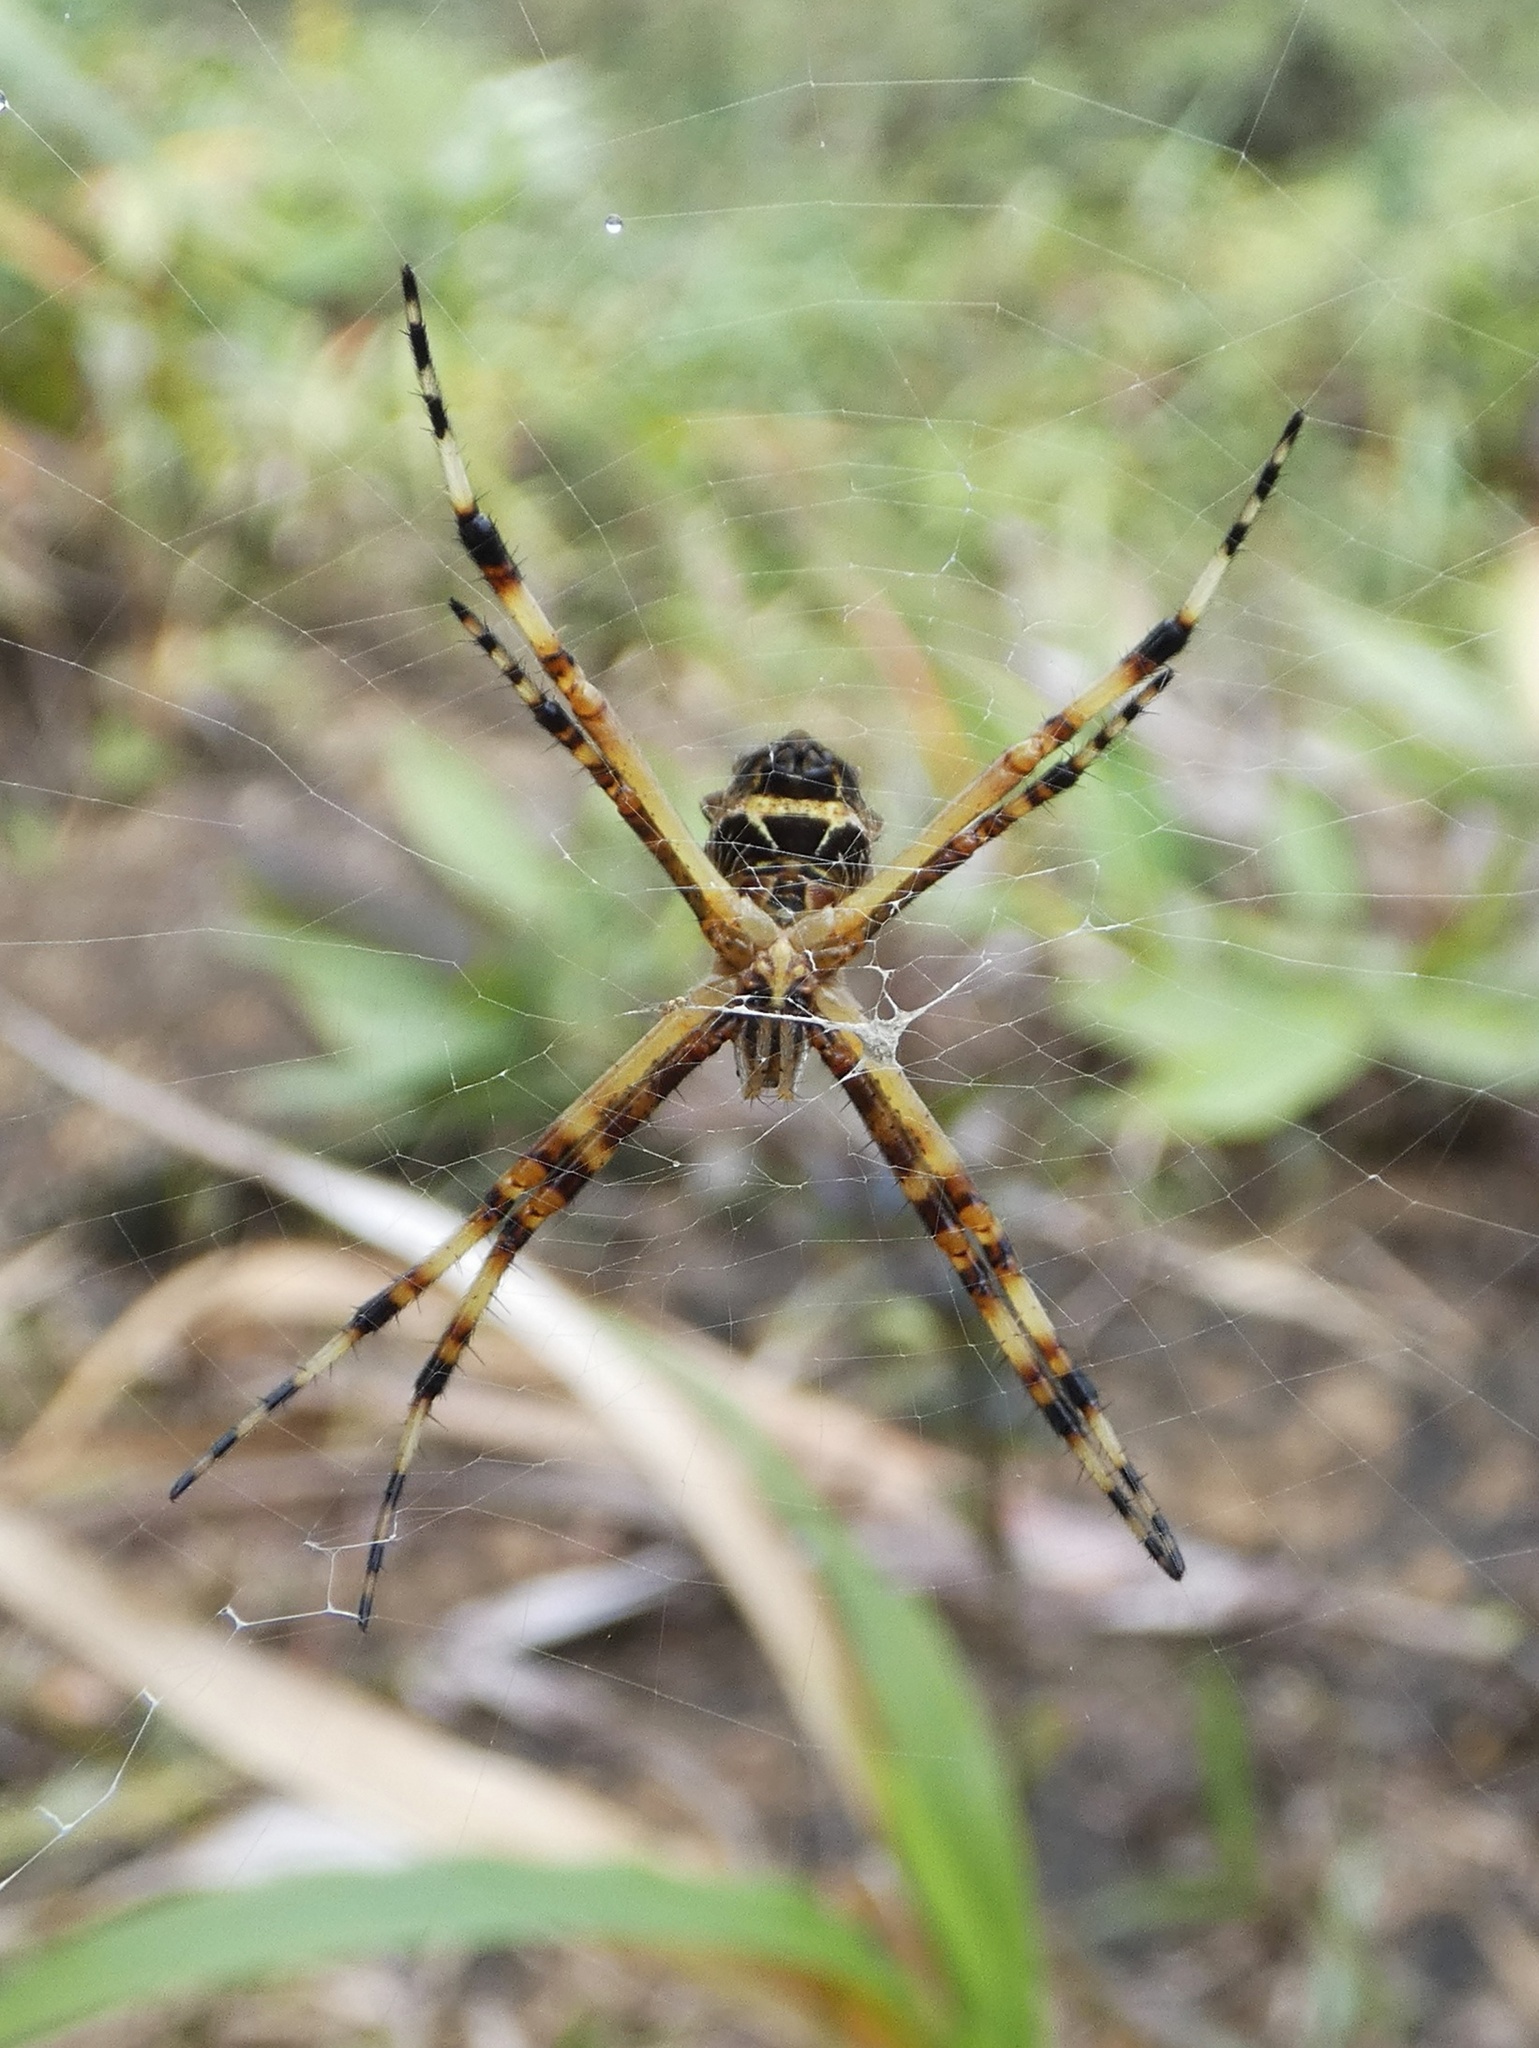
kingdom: Animalia
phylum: Arthropoda
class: Arachnida
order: Araneae
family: Araneidae
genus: Argiope
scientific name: Argiope argentata
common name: Orb weavers
